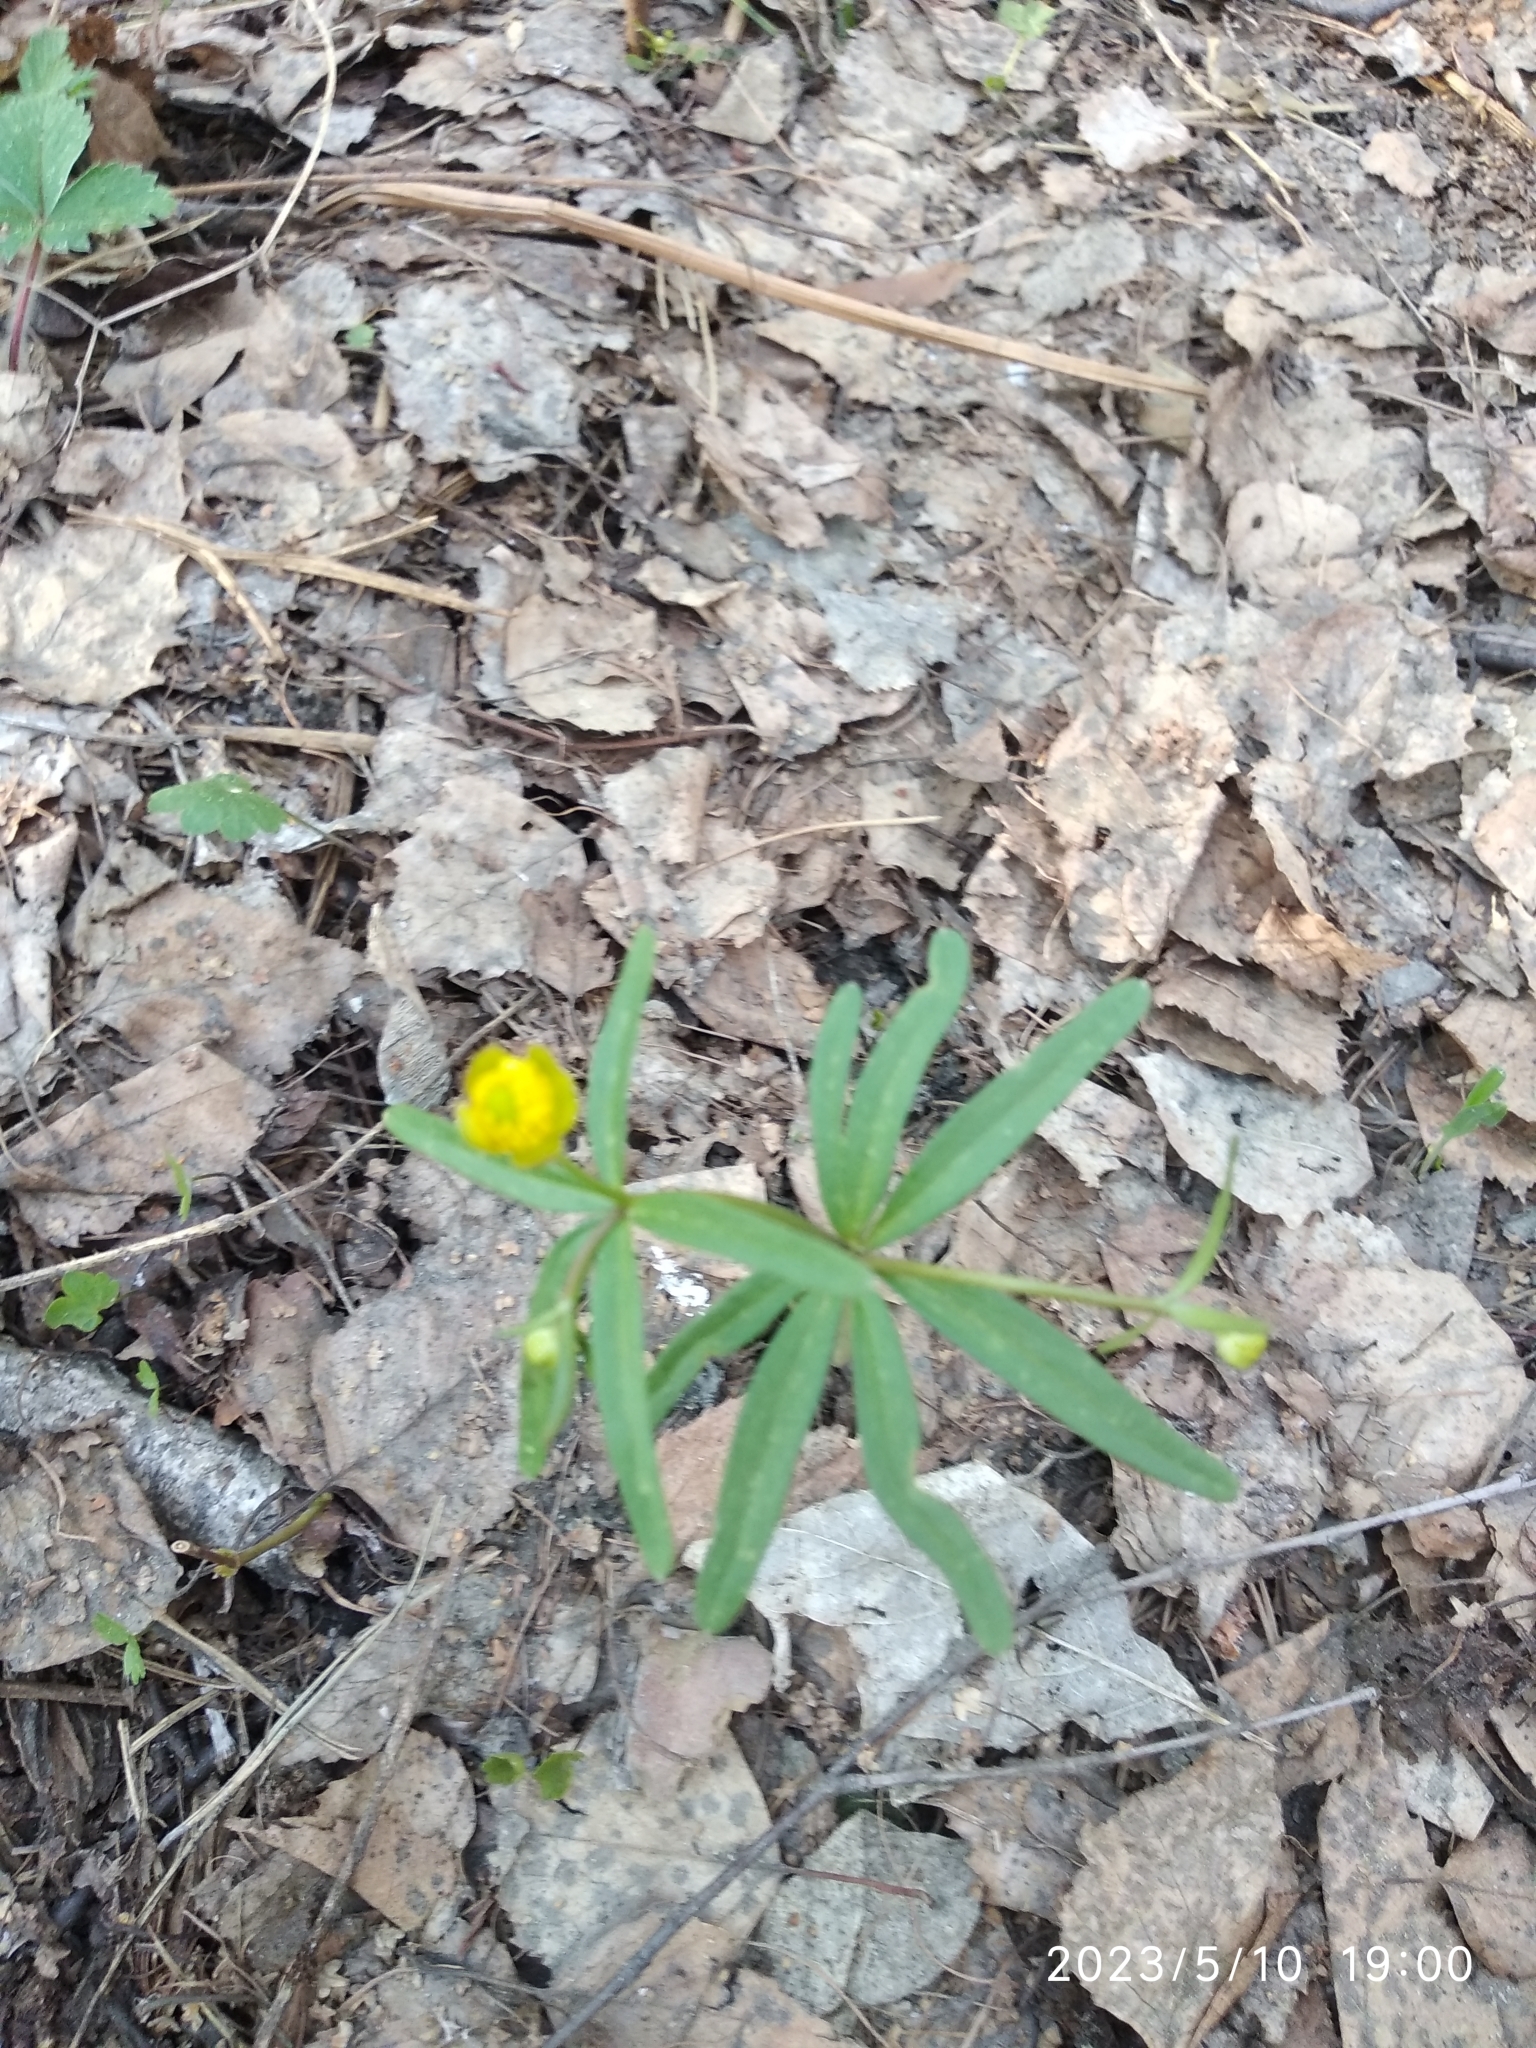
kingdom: Plantae
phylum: Tracheophyta
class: Magnoliopsida
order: Ranunculales
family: Ranunculaceae
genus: Ranunculus
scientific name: Ranunculus monophyllus
